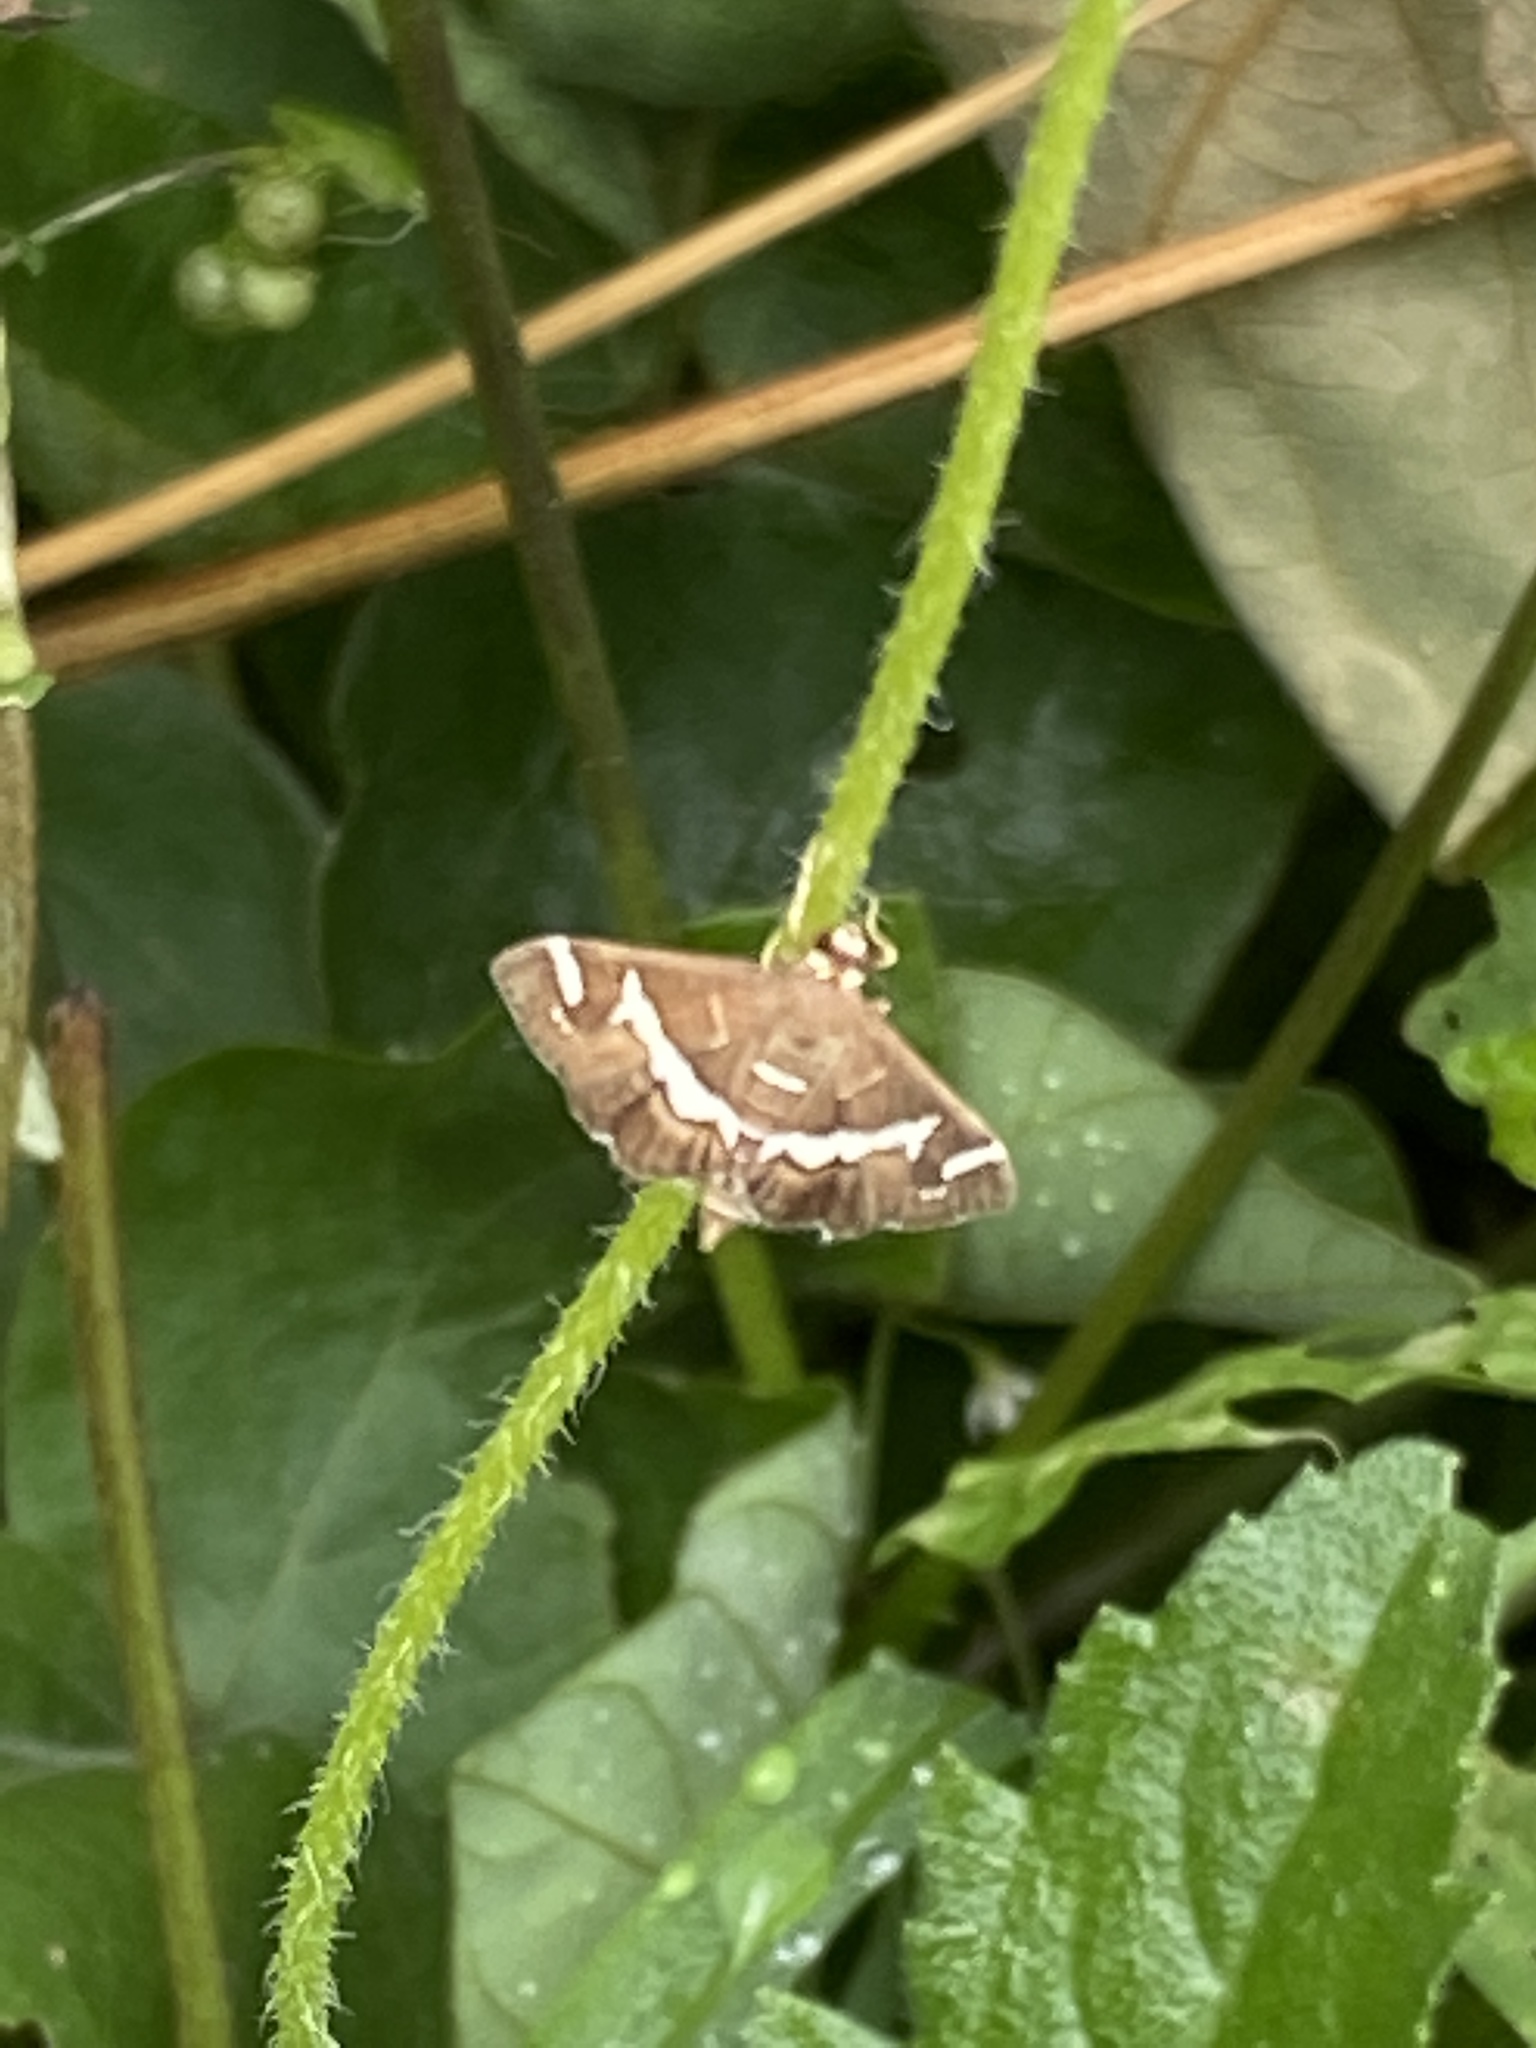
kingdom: Animalia
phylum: Arthropoda
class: Insecta
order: Lepidoptera
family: Crambidae
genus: Spoladea
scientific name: Spoladea recurvalis
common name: Beet webworm moth
